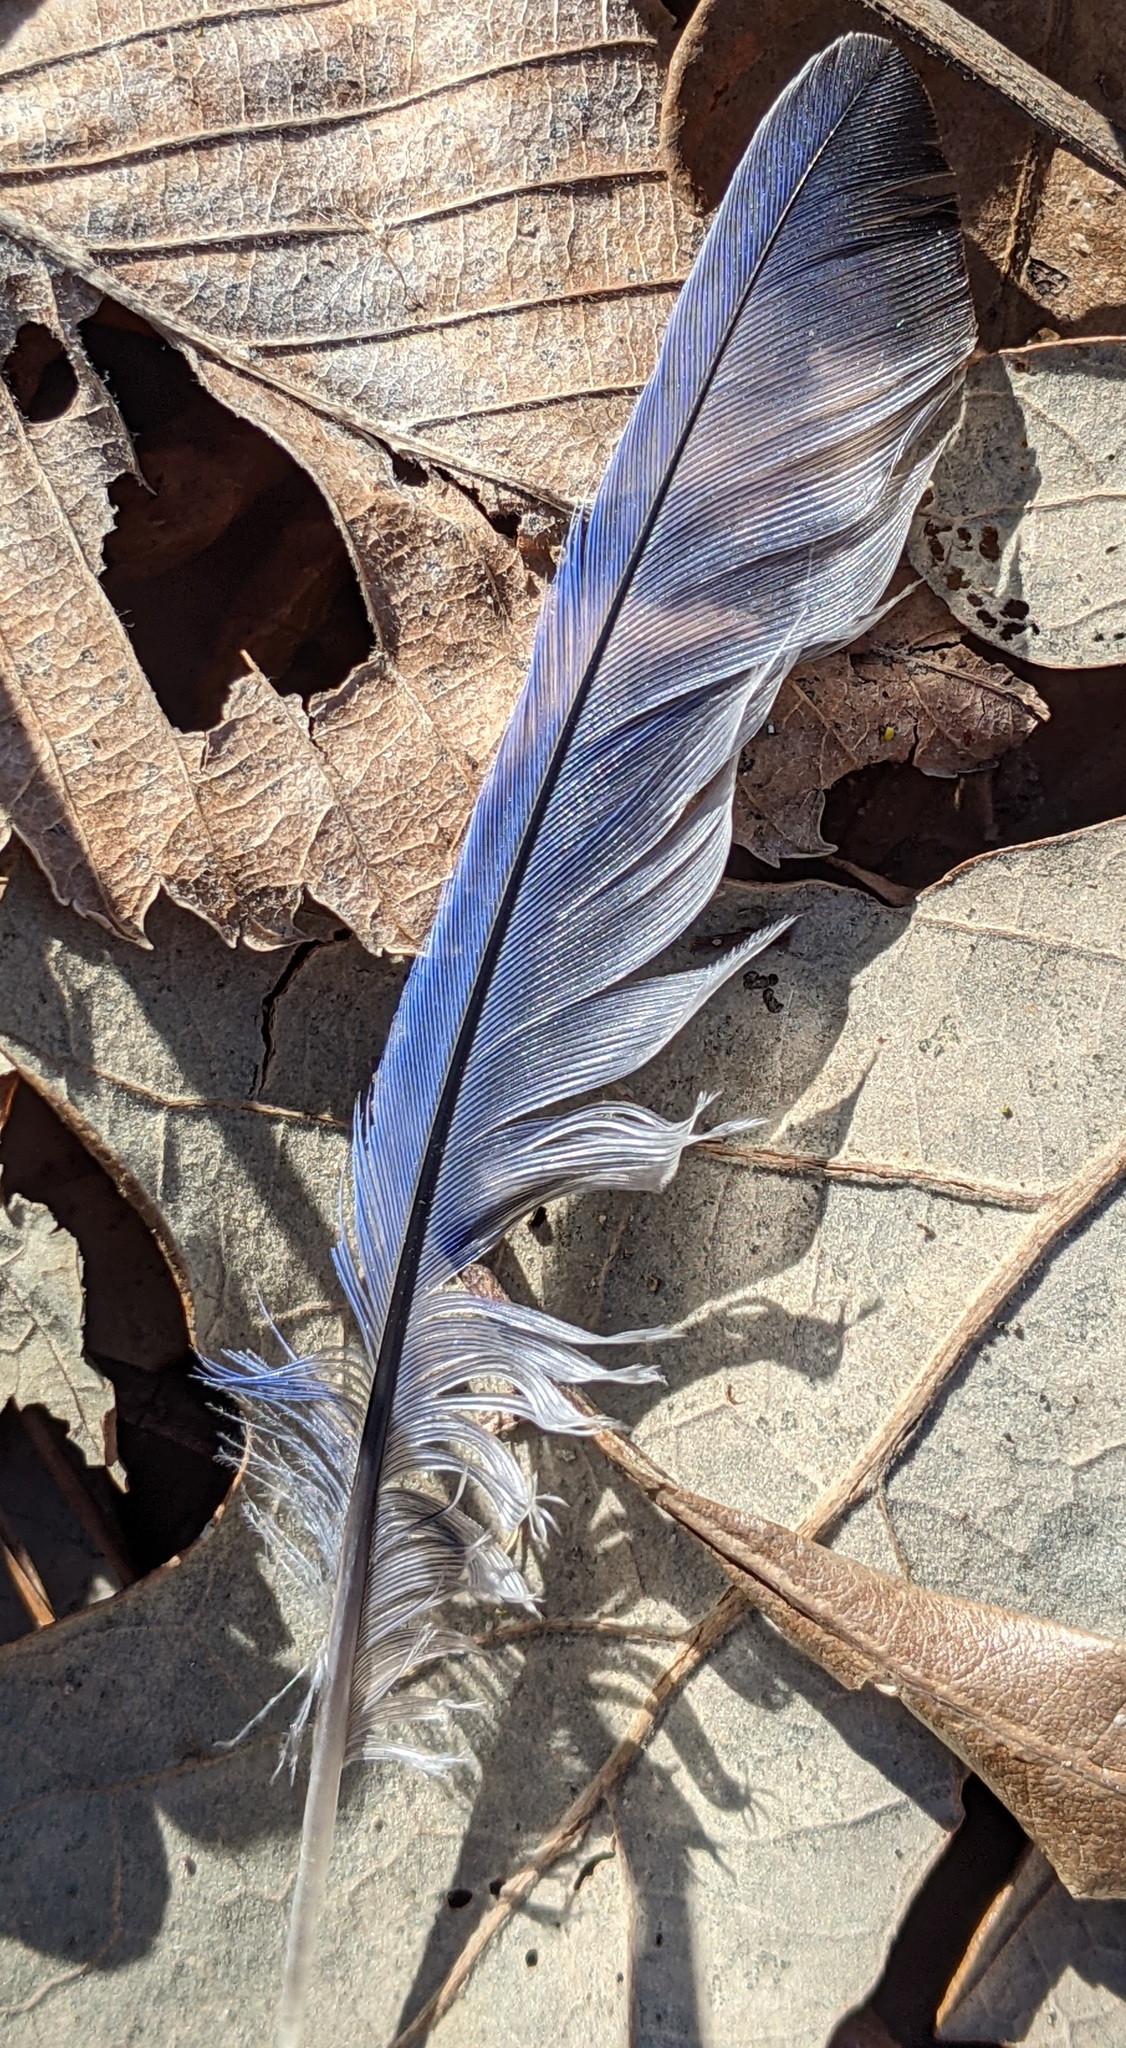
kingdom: Animalia
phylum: Chordata
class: Aves
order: Passeriformes
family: Turdidae
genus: Sialia
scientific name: Sialia sialis
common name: Eastern bluebird
